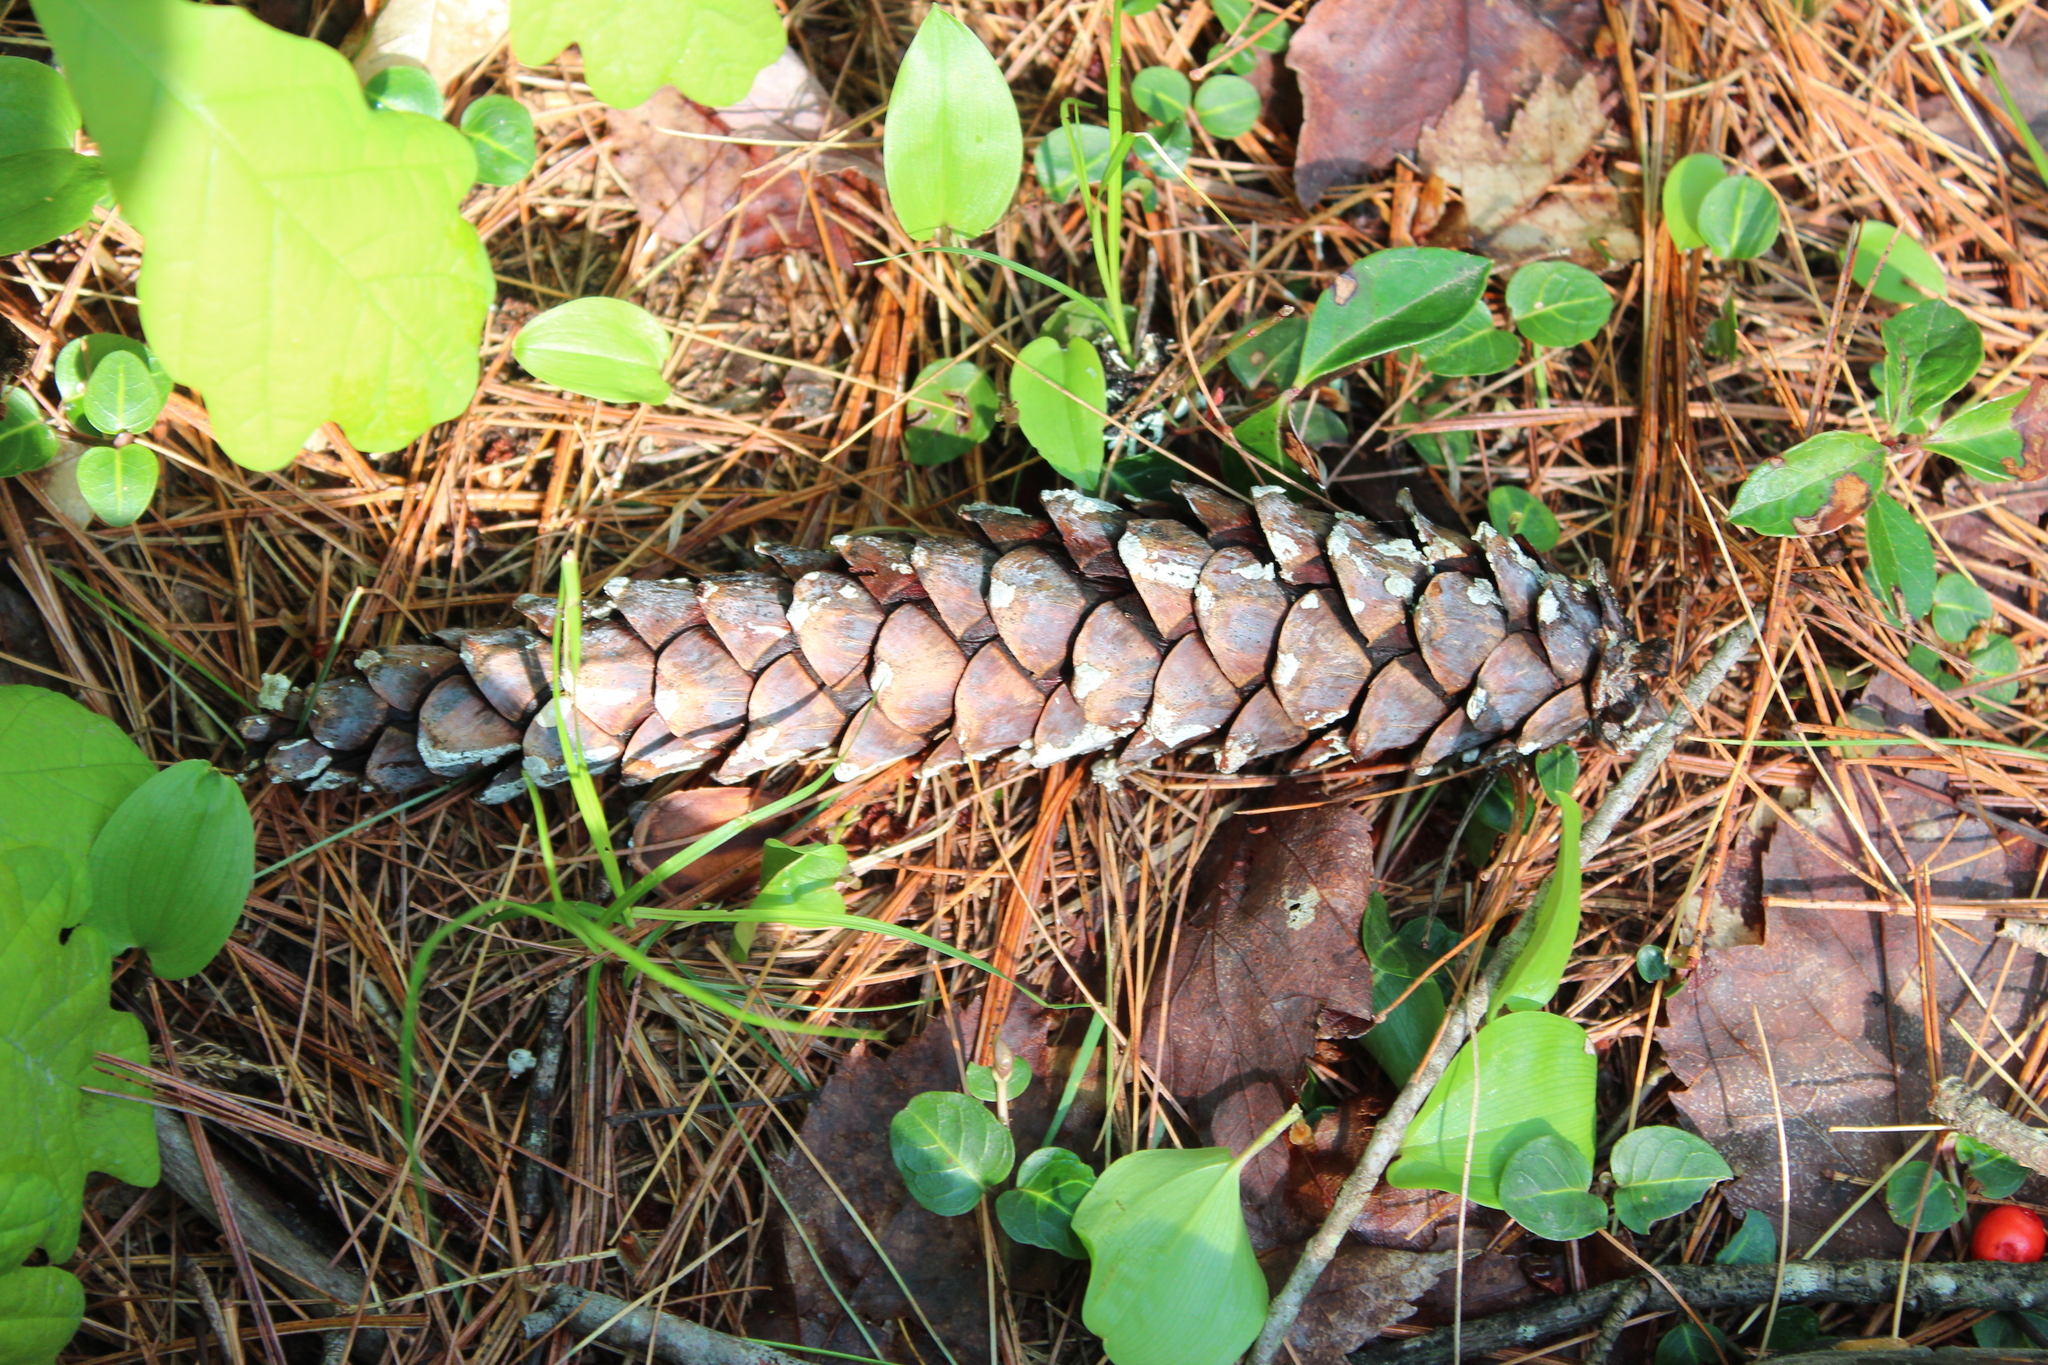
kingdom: Plantae
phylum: Tracheophyta
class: Pinopsida
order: Pinales
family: Pinaceae
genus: Pinus
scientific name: Pinus strobus
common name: Weymouth pine
